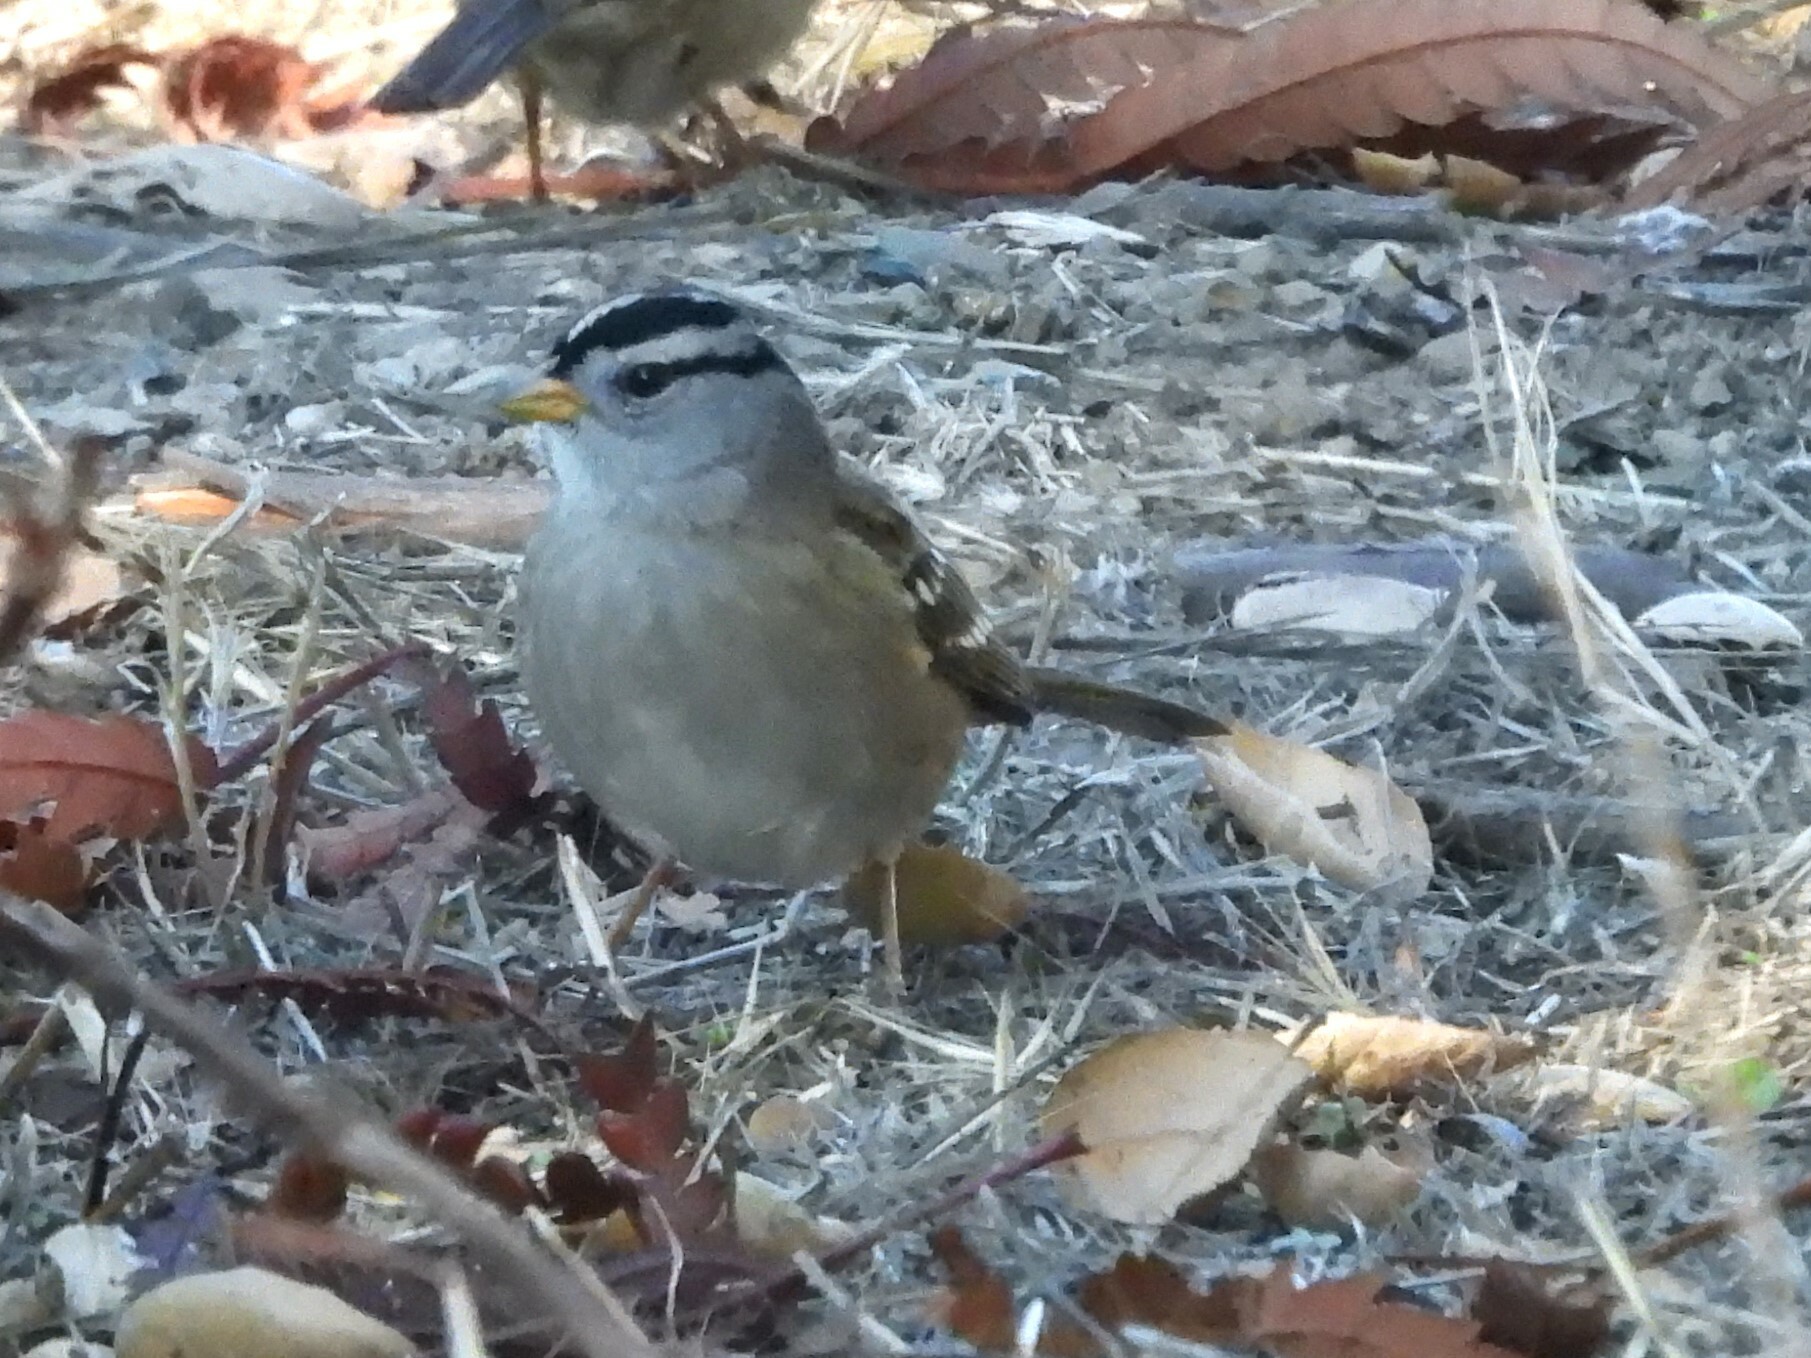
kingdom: Animalia
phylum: Chordata
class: Aves
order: Passeriformes
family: Passerellidae
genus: Zonotrichia
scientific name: Zonotrichia leucophrys
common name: White-crowned sparrow
